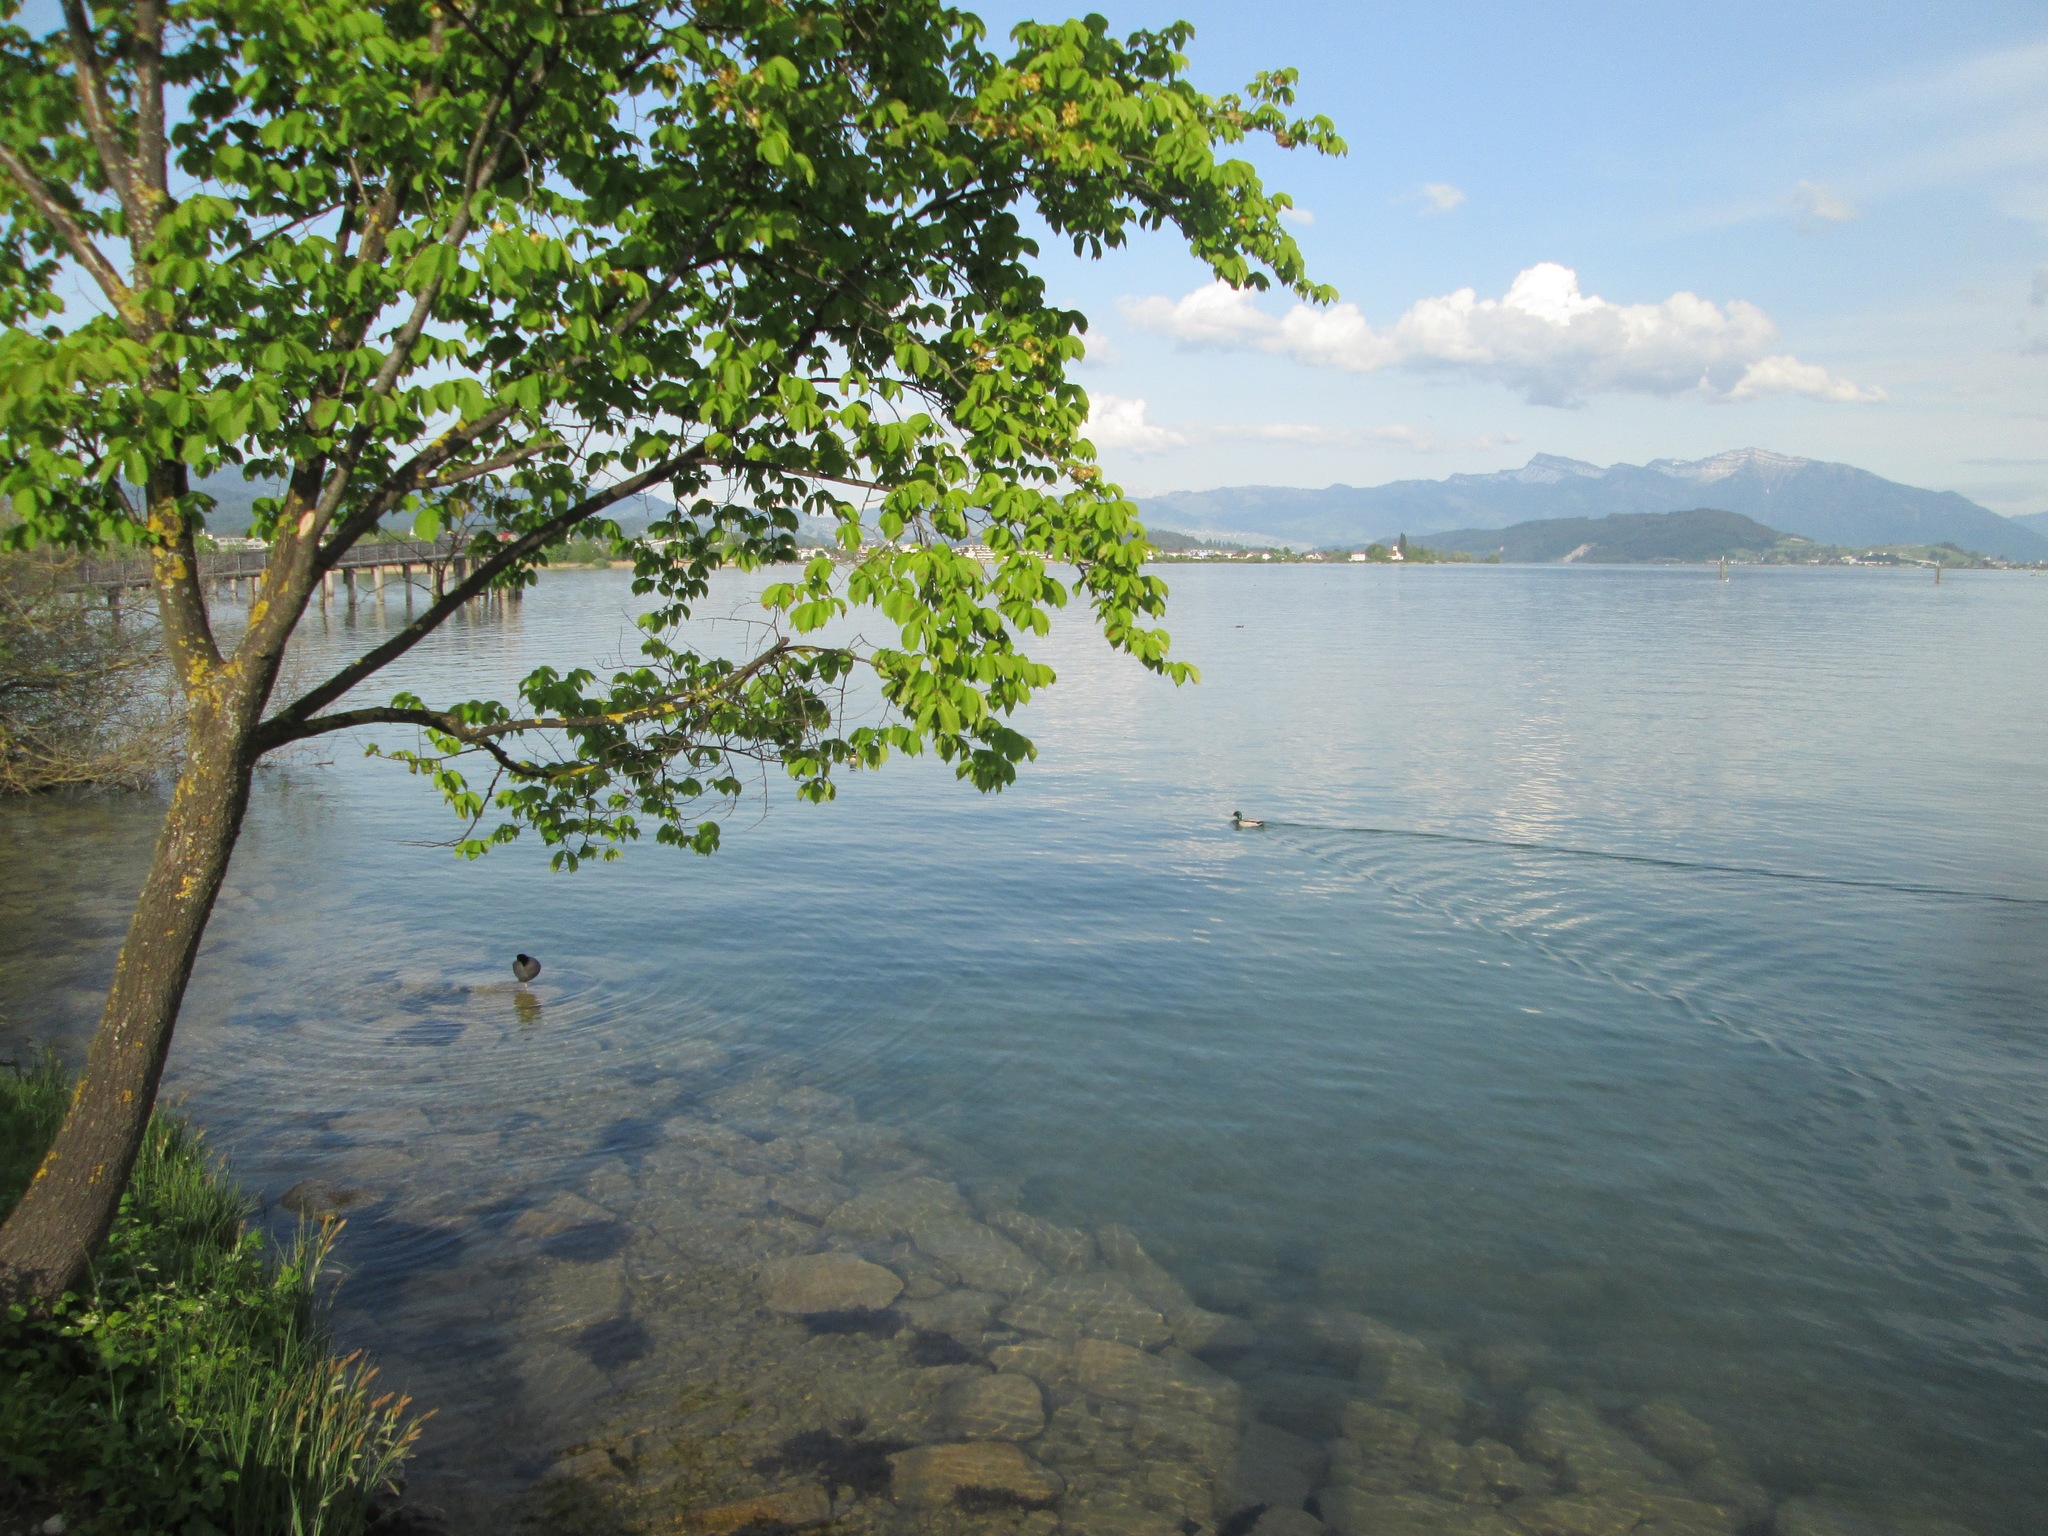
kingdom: Animalia
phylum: Chordata
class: Aves
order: Gruiformes
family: Rallidae
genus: Fulica
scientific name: Fulica atra
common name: Eurasian coot
